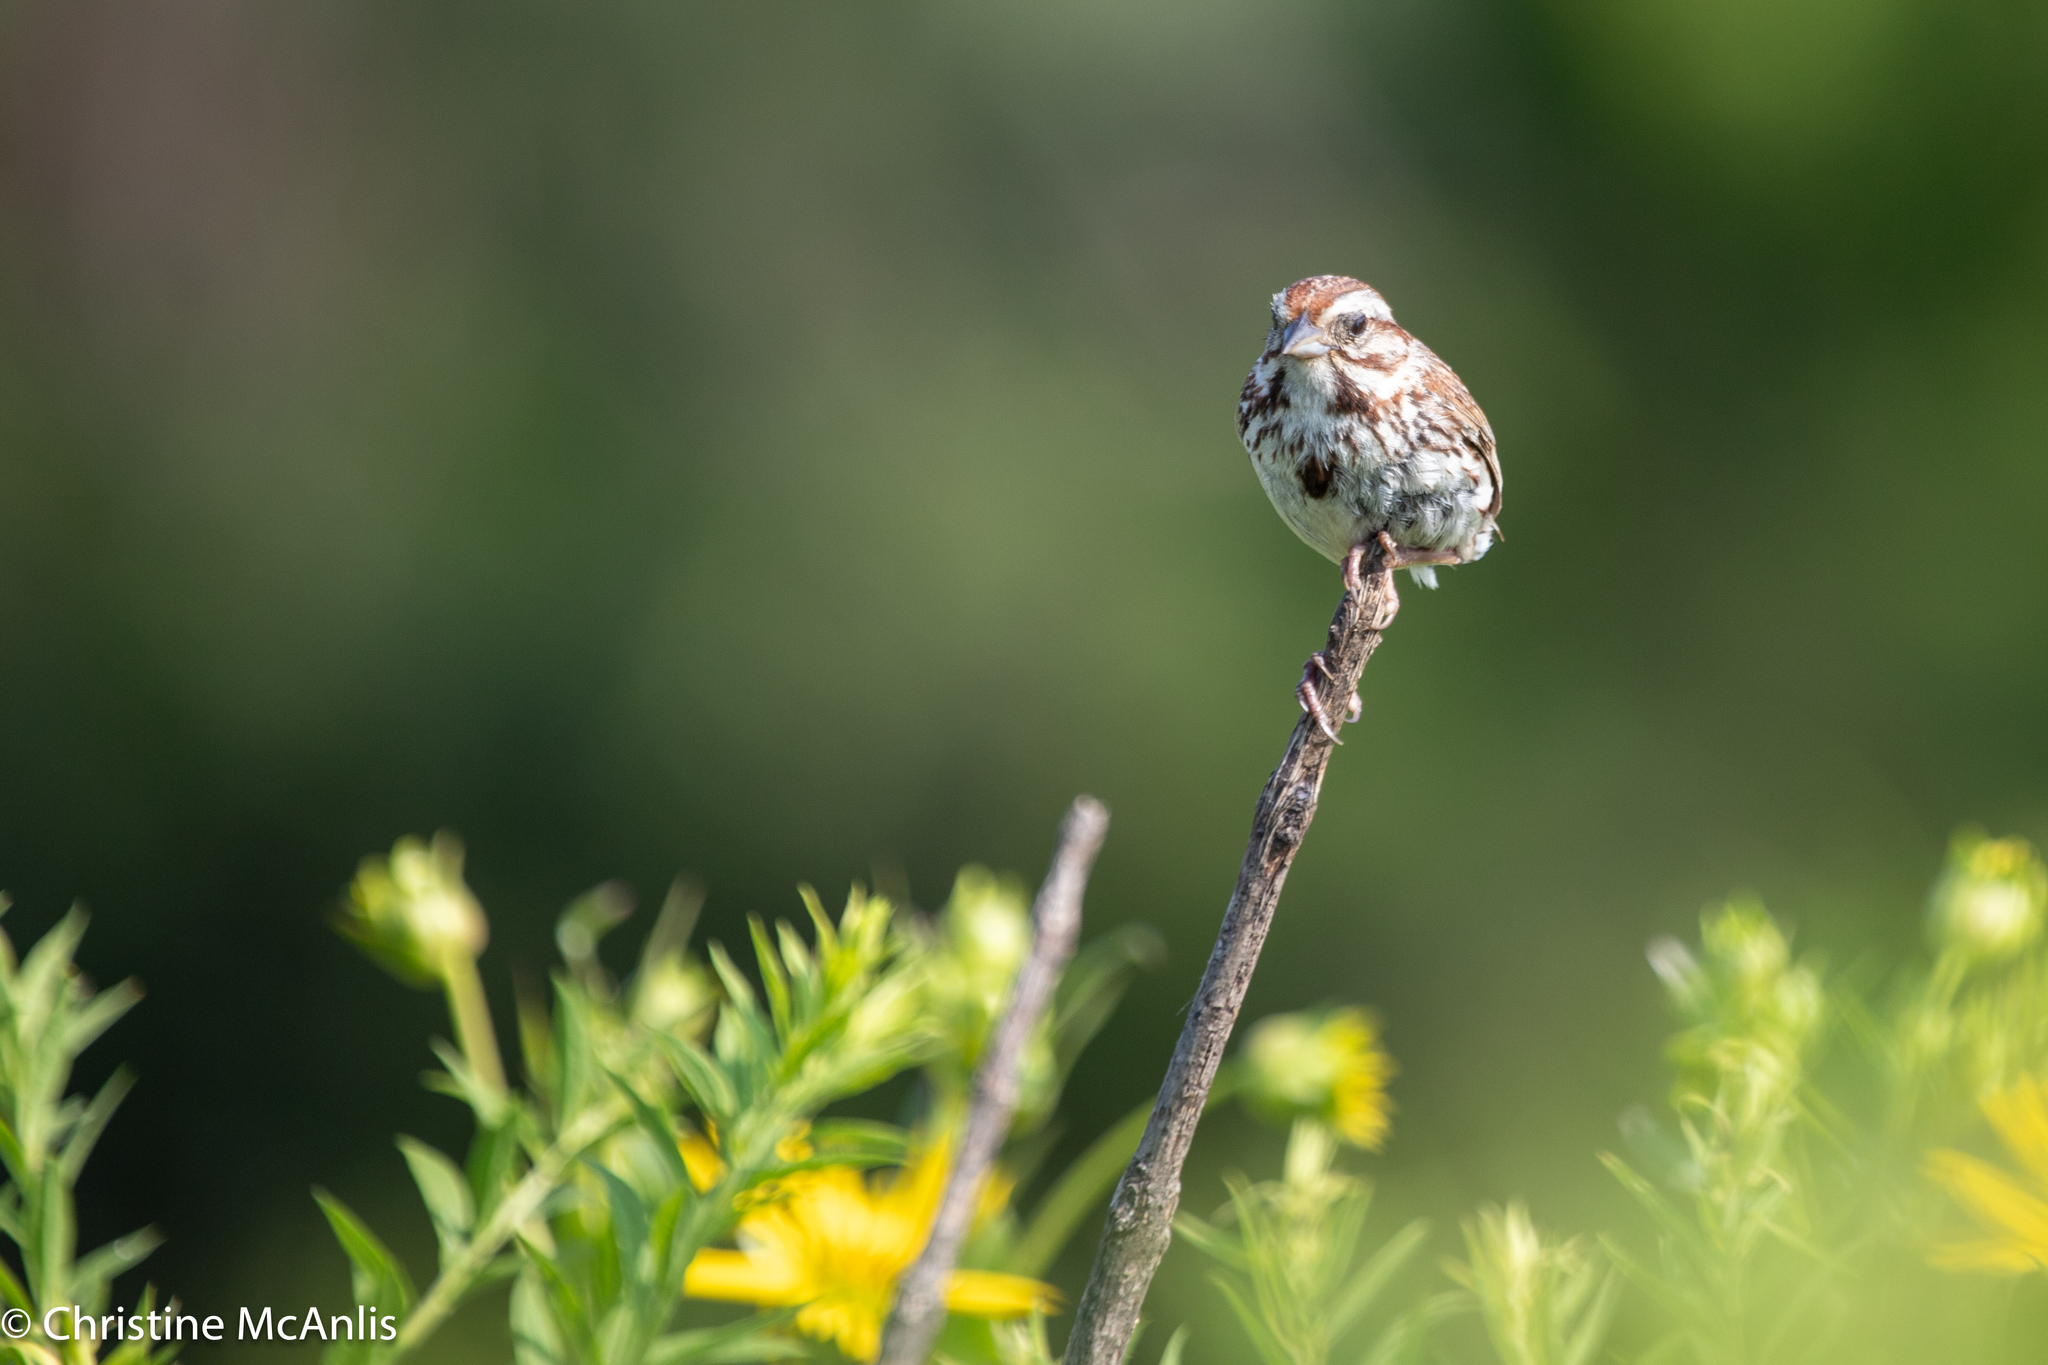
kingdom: Animalia
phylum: Chordata
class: Aves
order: Passeriformes
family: Passerellidae
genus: Melospiza
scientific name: Melospiza melodia
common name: Song sparrow
